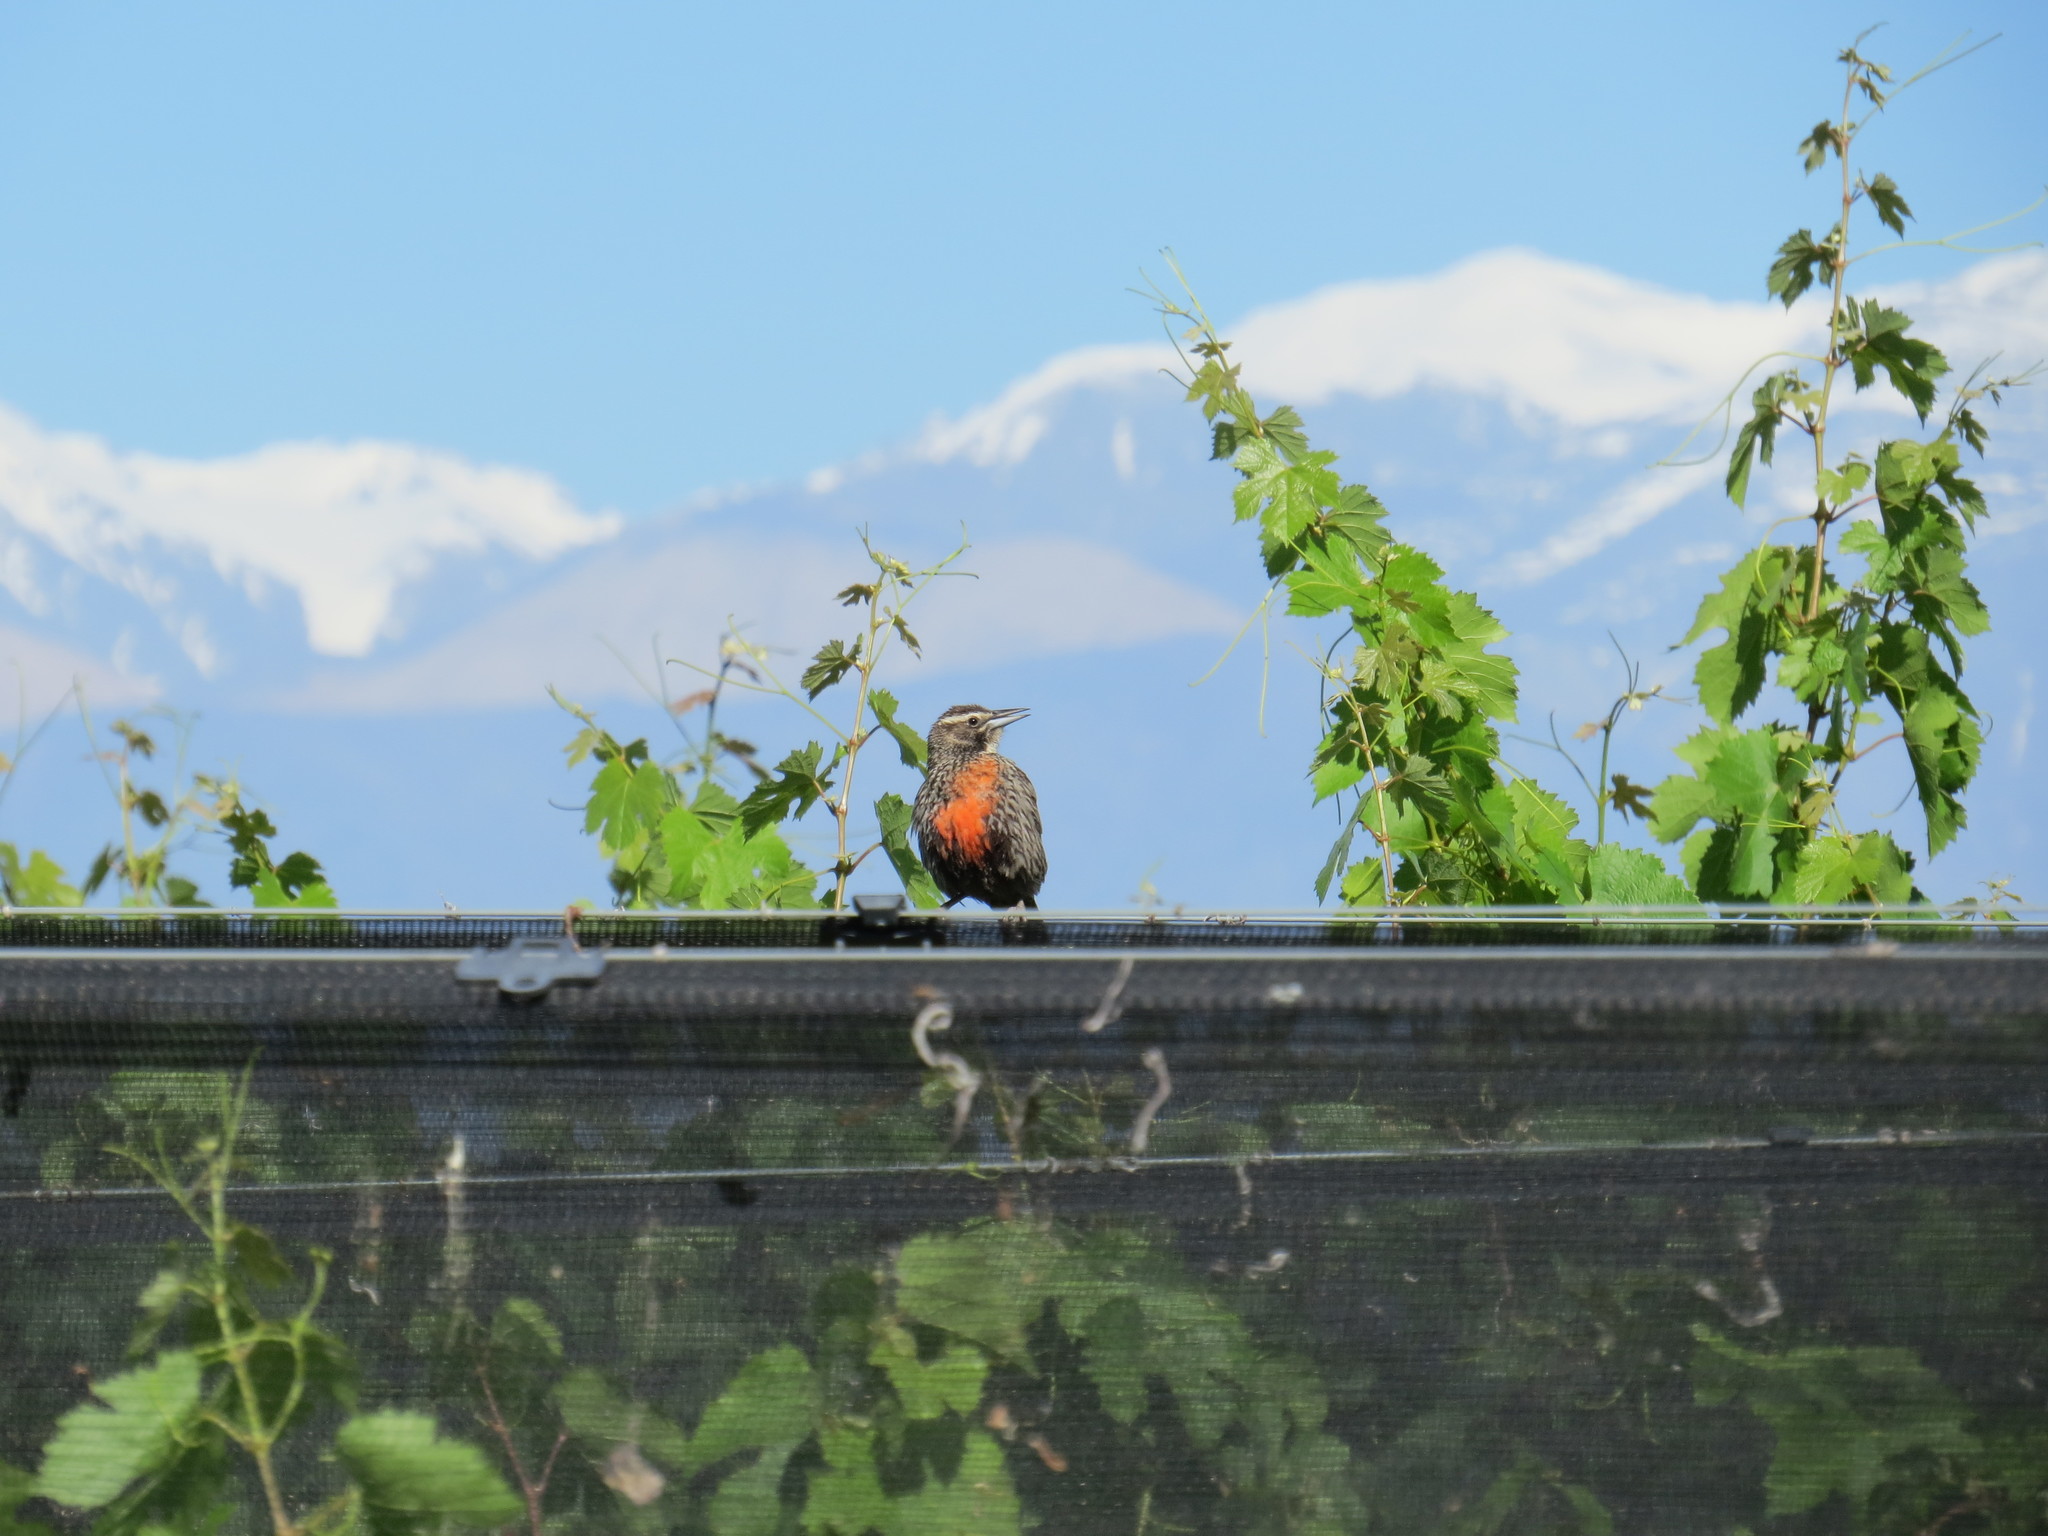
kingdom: Animalia
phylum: Chordata
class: Aves
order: Passeriformes
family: Icteridae
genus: Sturnella
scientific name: Sturnella loyca
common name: Long-tailed meadowlark
